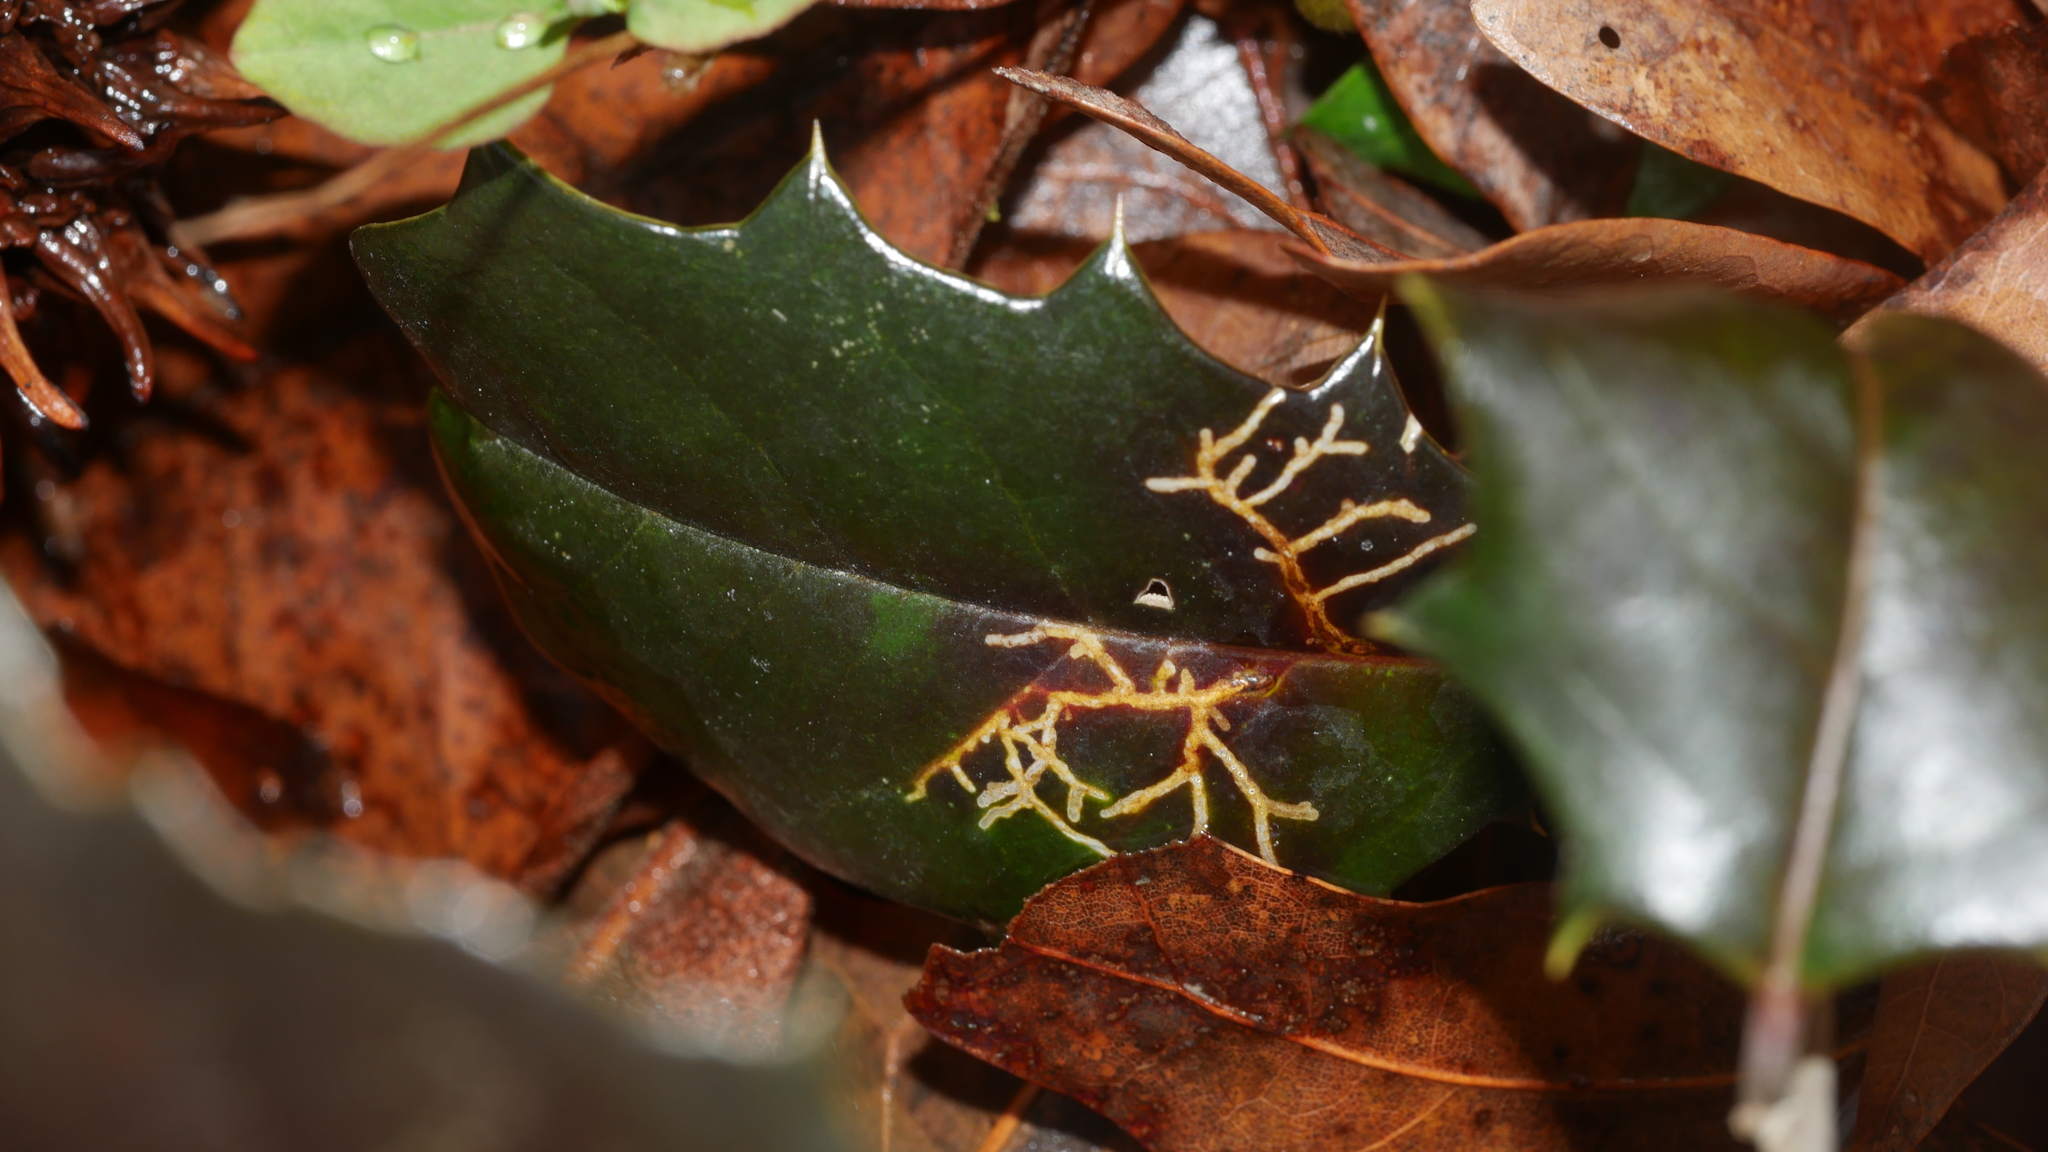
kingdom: Animalia
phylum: Arthropoda
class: Insecta
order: Lepidoptera
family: Tortricidae
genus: Rhopobota
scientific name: Rhopobota
